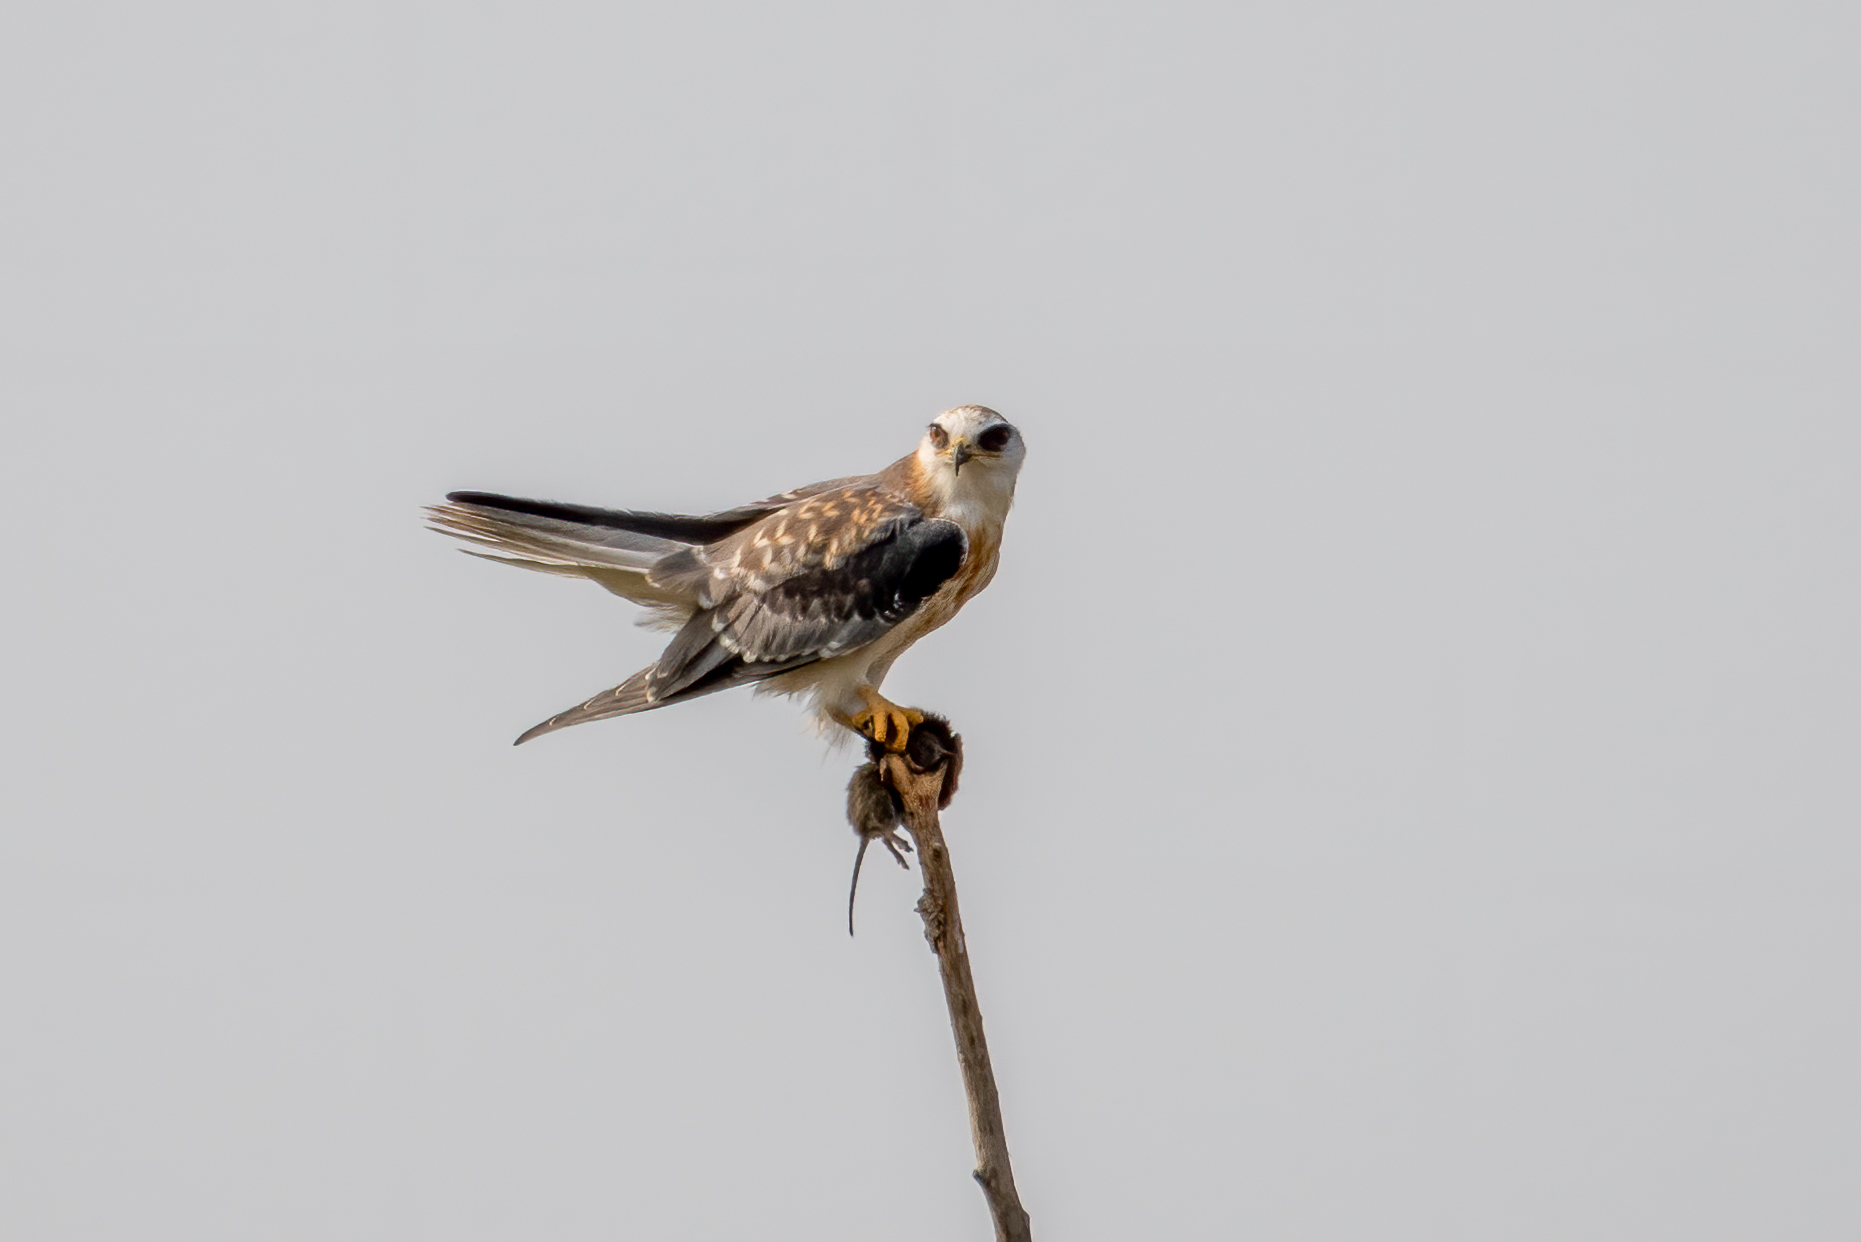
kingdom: Animalia
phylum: Chordata
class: Aves
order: Accipitriformes
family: Accipitridae
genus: Elanus
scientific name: Elanus leucurus
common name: White-tailed kite
